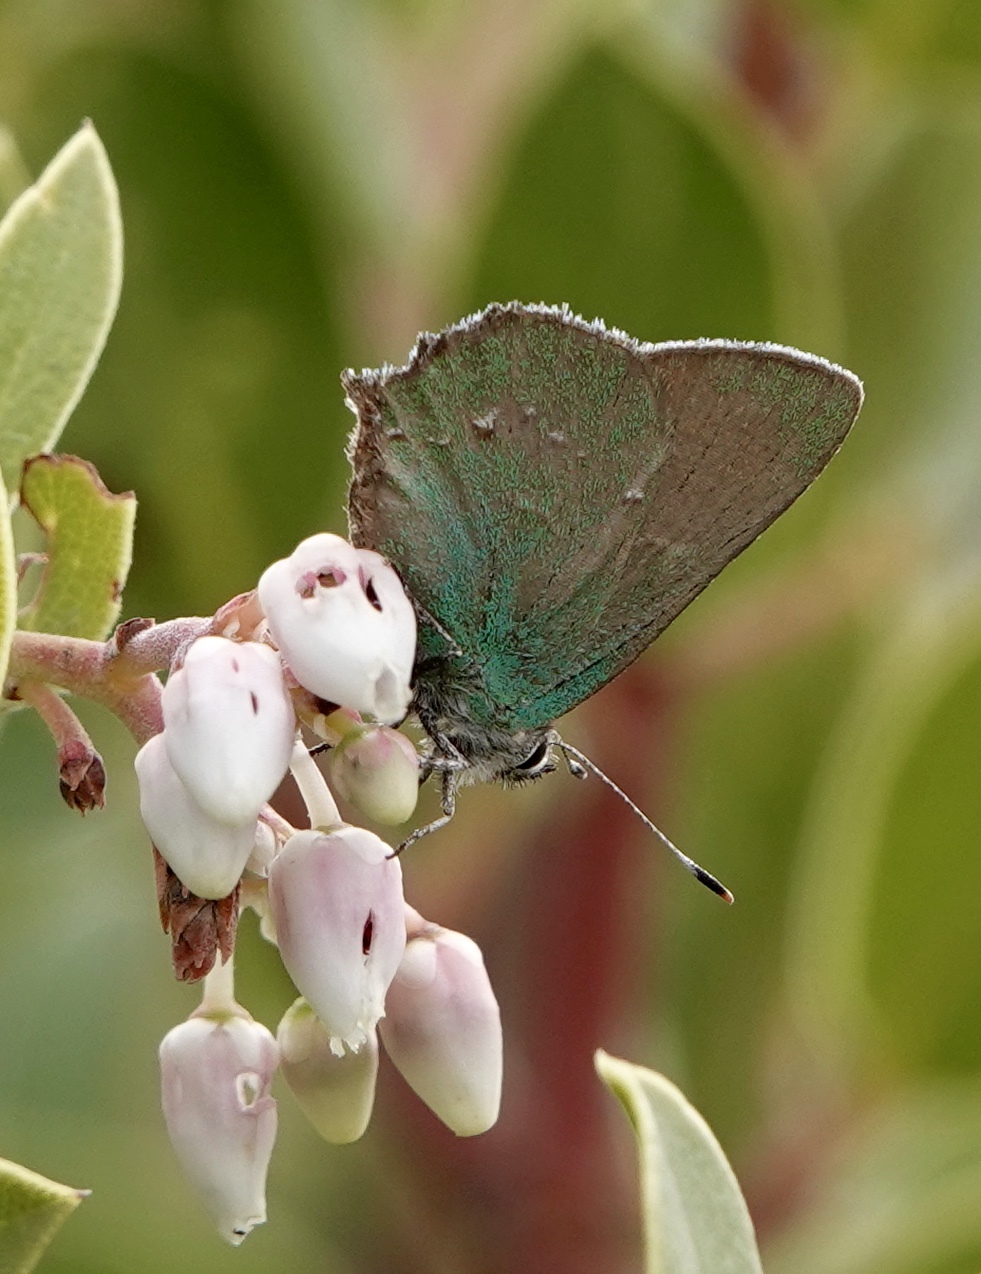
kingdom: Animalia
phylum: Arthropoda
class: Insecta
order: Lepidoptera
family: Lycaenidae
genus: Callophrys
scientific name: Callophrys dumetorum
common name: Bramble hairstreak
